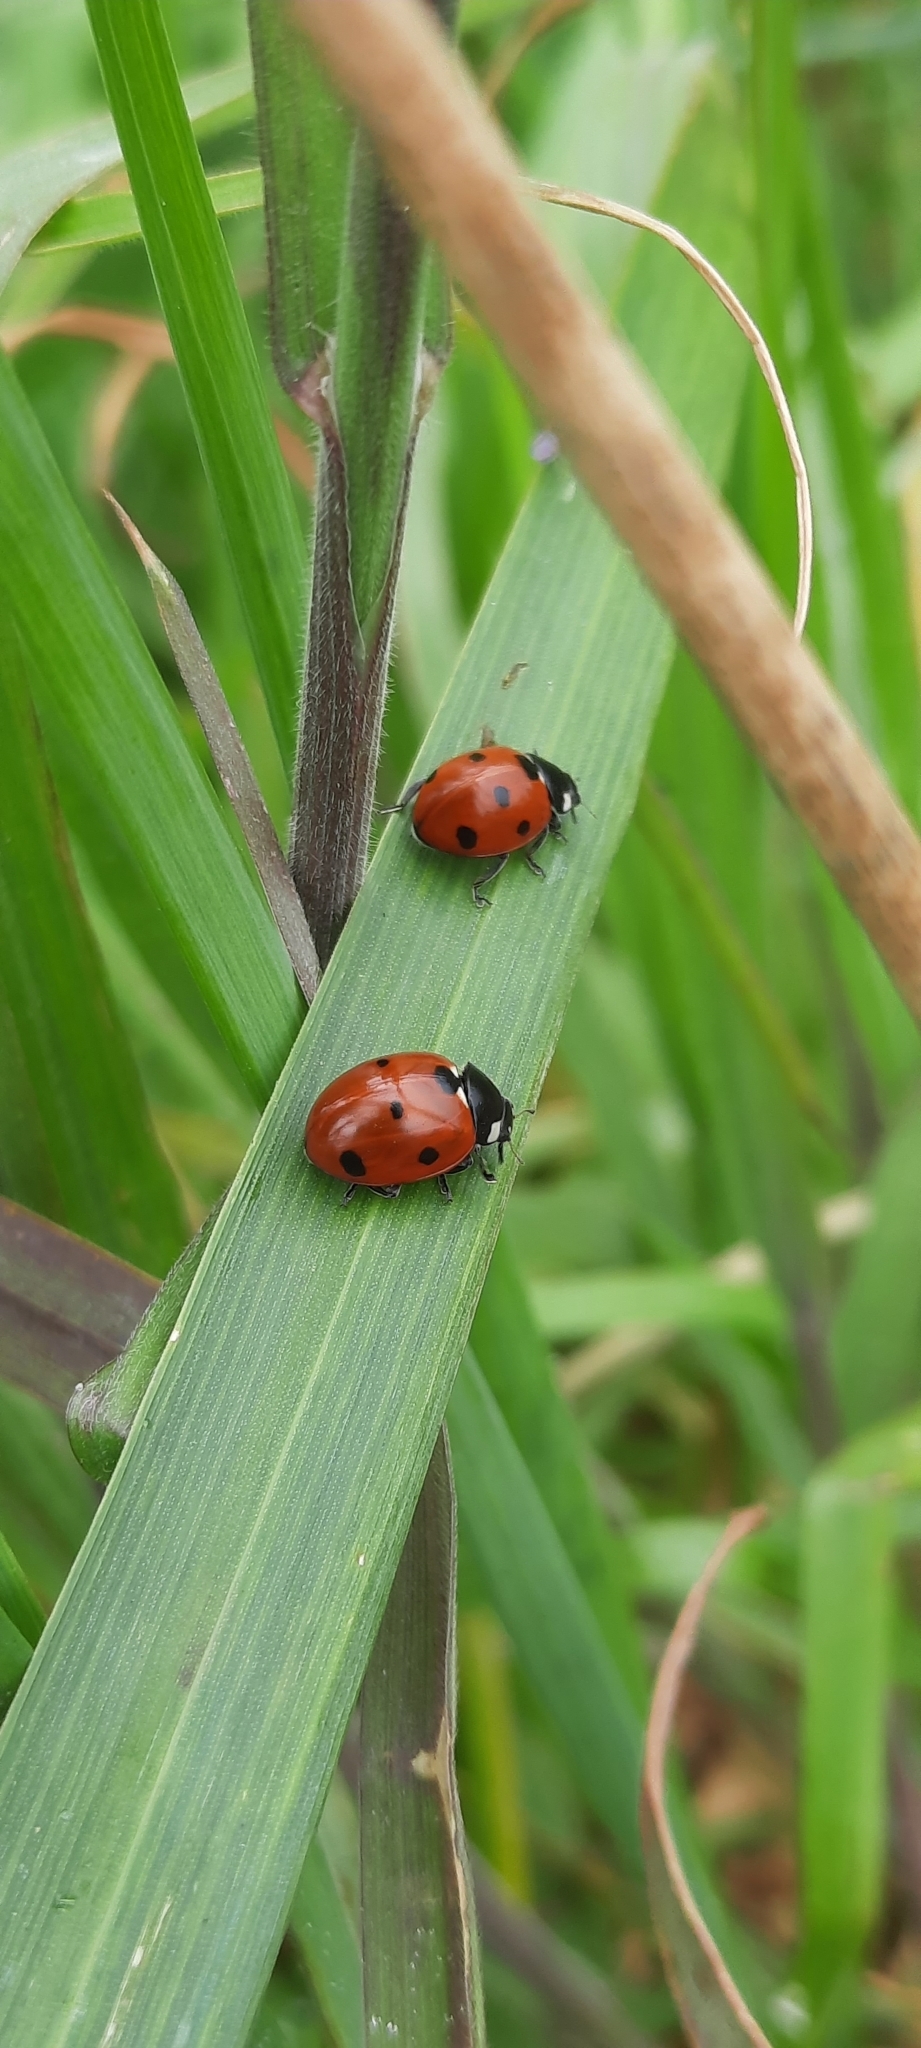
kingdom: Animalia
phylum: Arthropoda
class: Insecta
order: Coleoptera
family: Coccinellidae
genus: Coccinella
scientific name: Coccinella septempunctata
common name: Sevenspotted lady beetle
